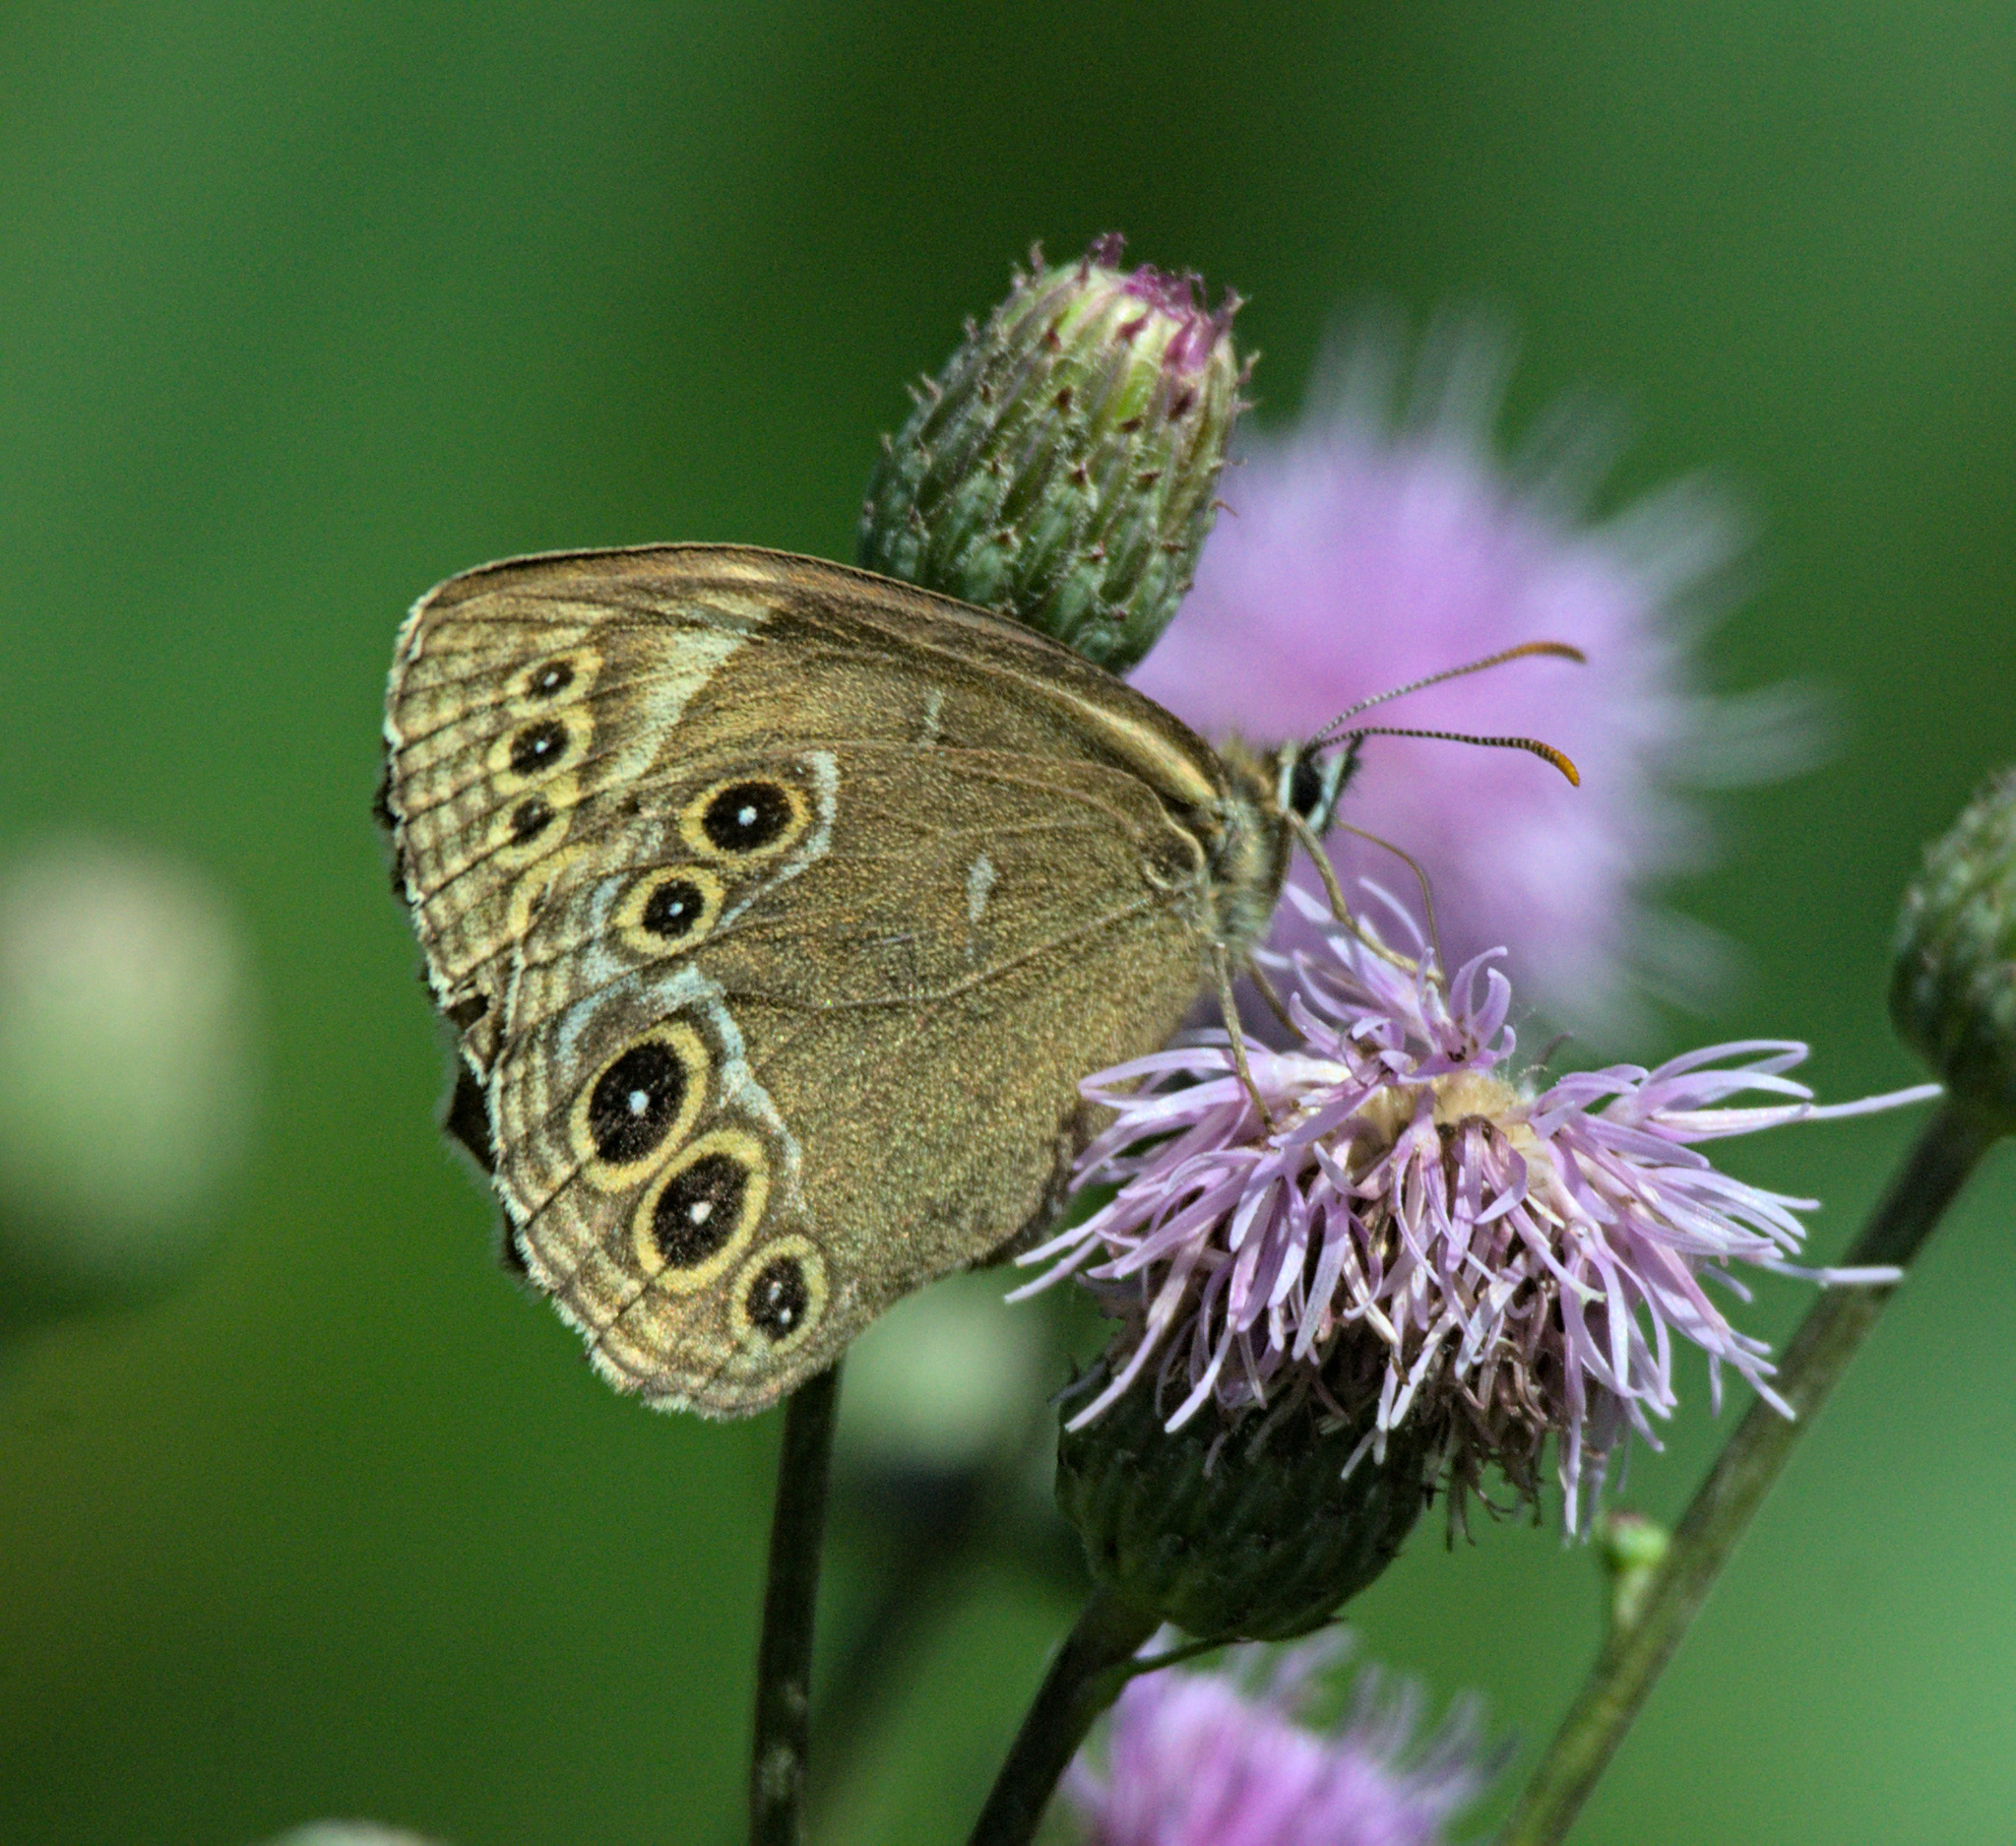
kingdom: Animalia
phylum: Arthropoda
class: Insecta
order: Lepidoptera
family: Nymphalidae
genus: Pararge
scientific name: Pararge Lopinga achine
